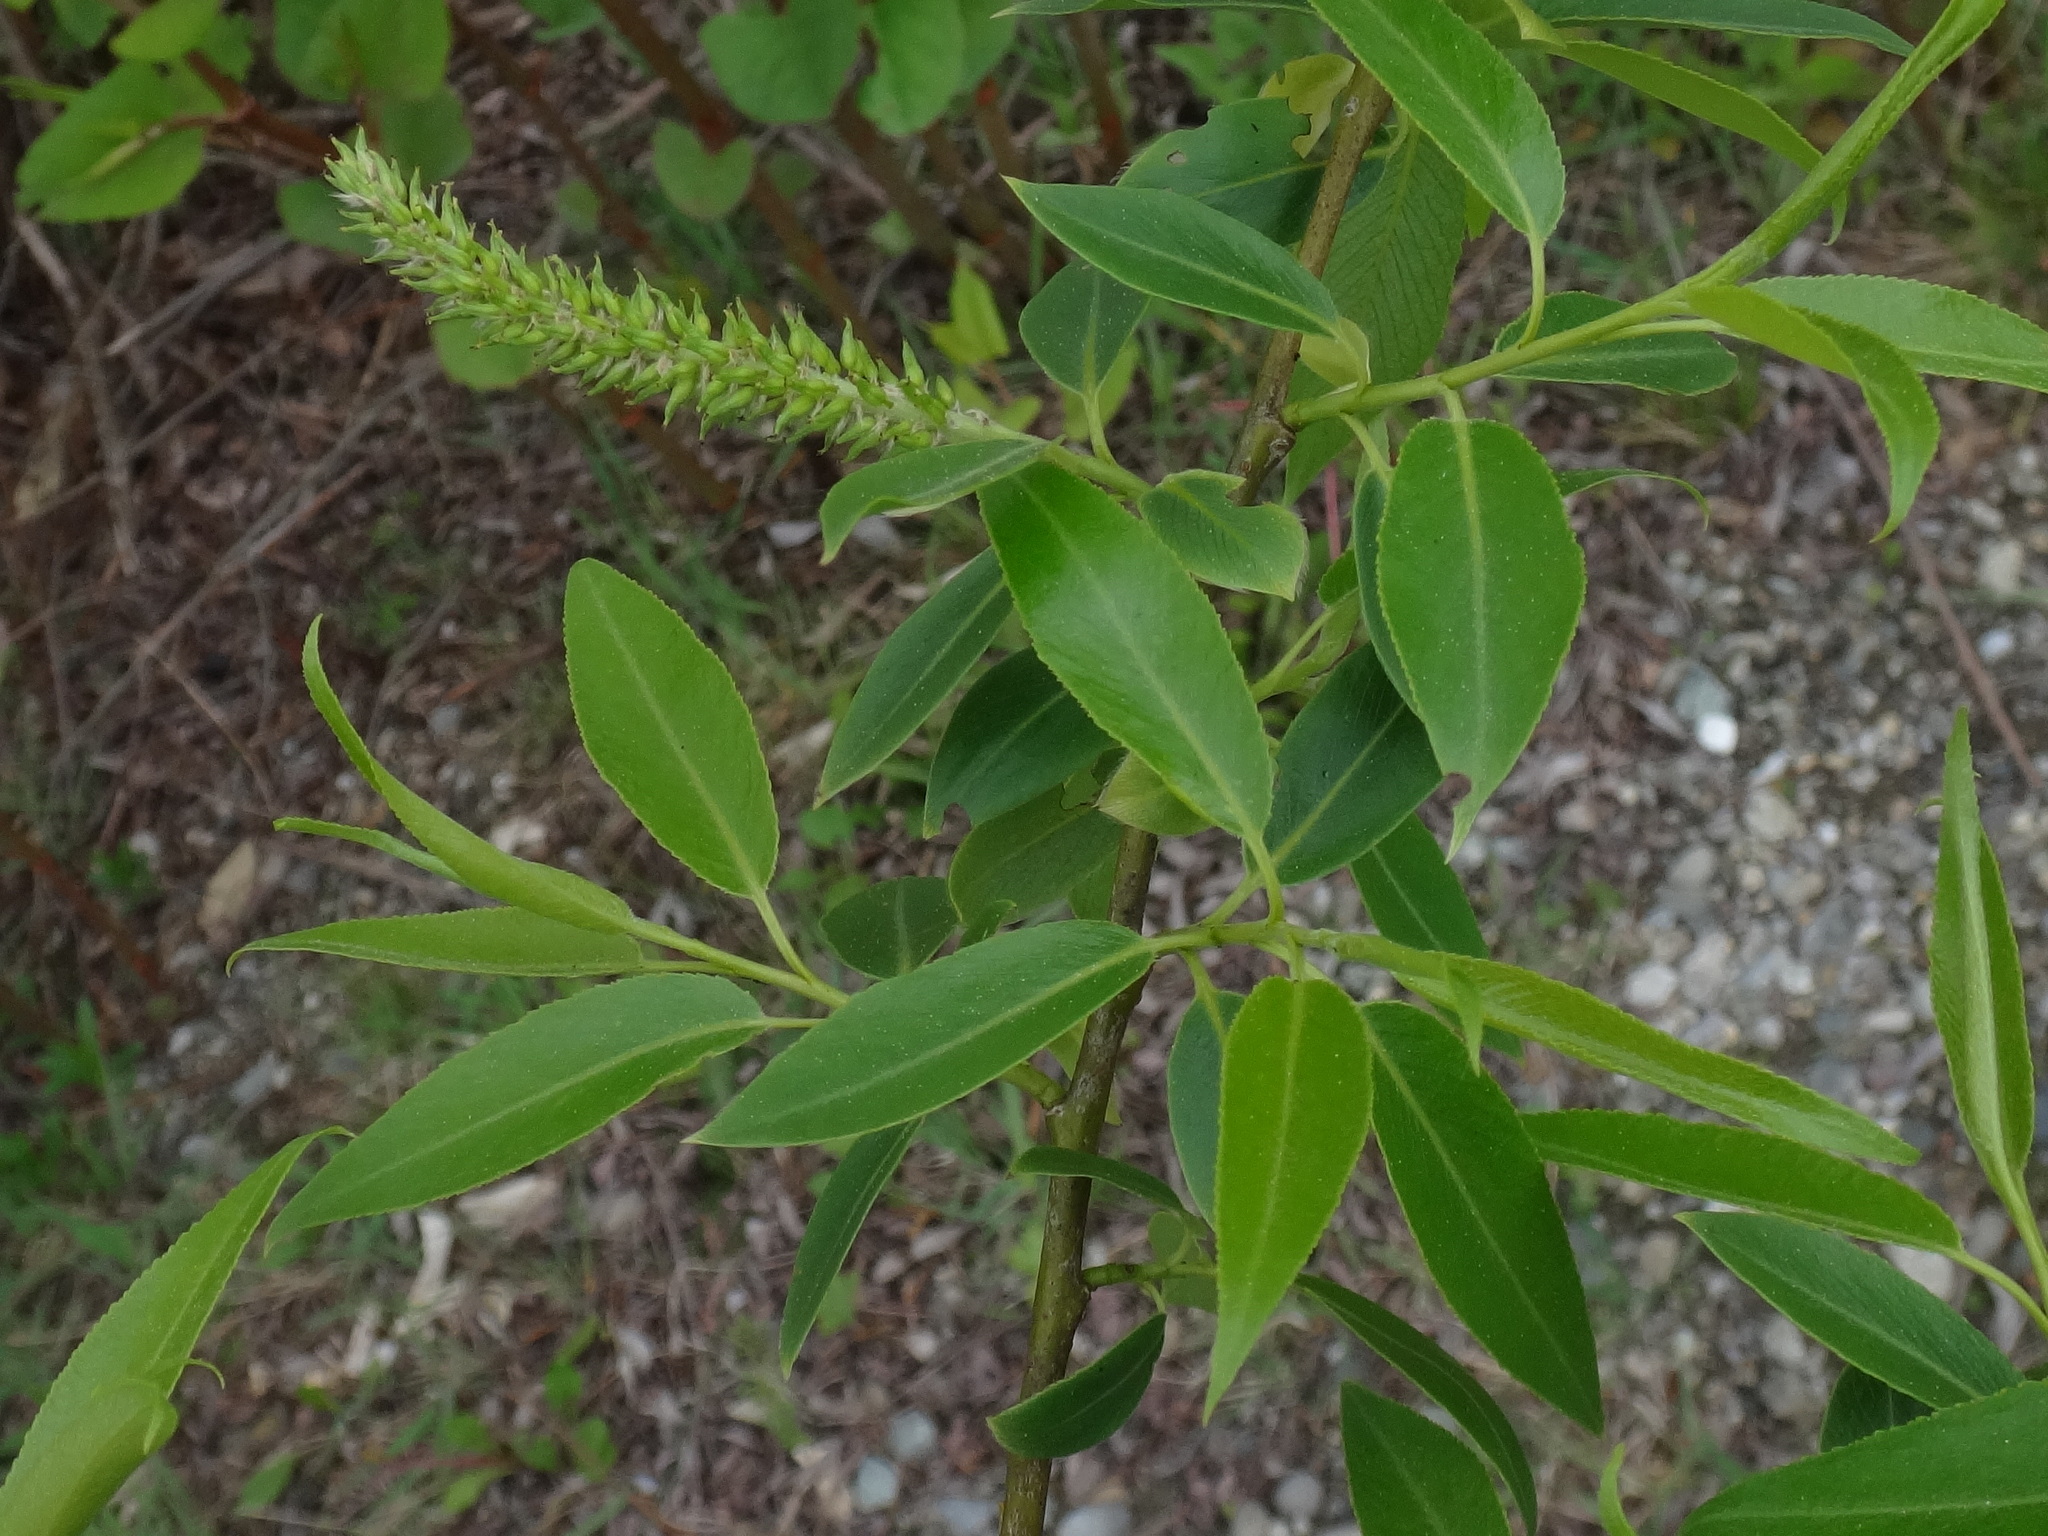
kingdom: Plantae
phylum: Tracheophyta
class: Magnoliopsida
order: Malpighiales
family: Salicaceae
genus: Salix
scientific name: Salix fragilis
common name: Crack willow
